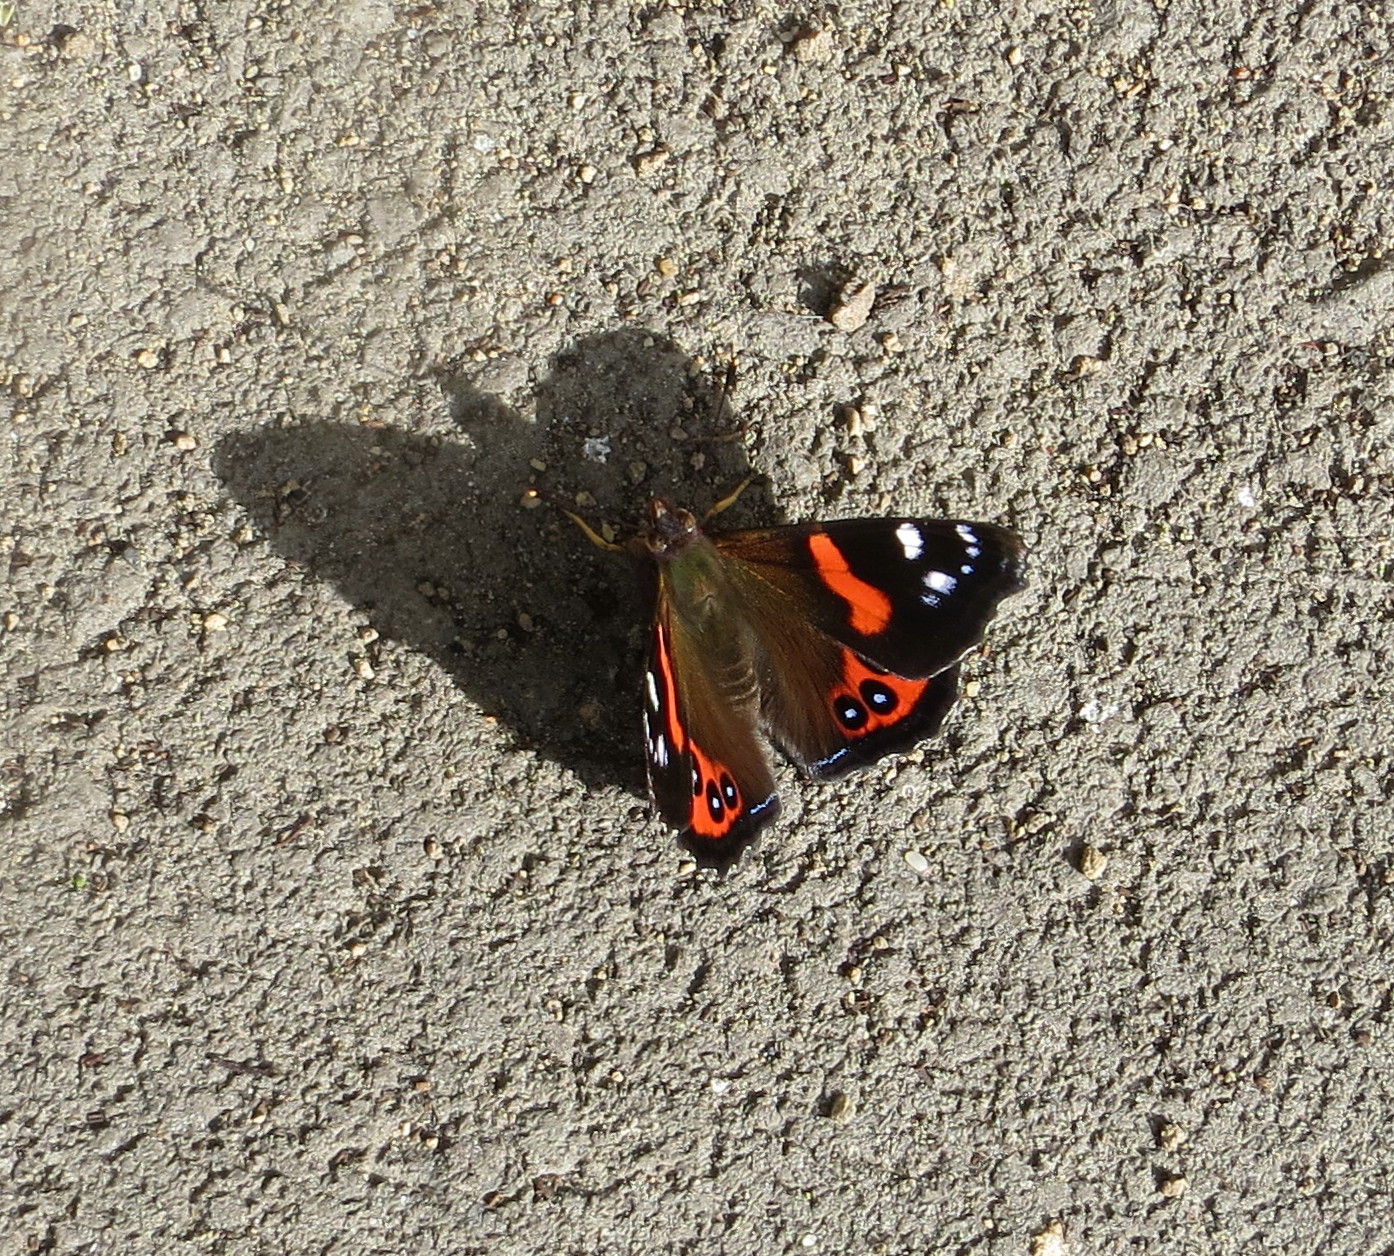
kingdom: Animalia
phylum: Arthropoda
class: Insecta
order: Lepidoptera
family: Nymphalidae
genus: Vanessa
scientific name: Vanessa gonerilla
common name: New zealand red admiral
